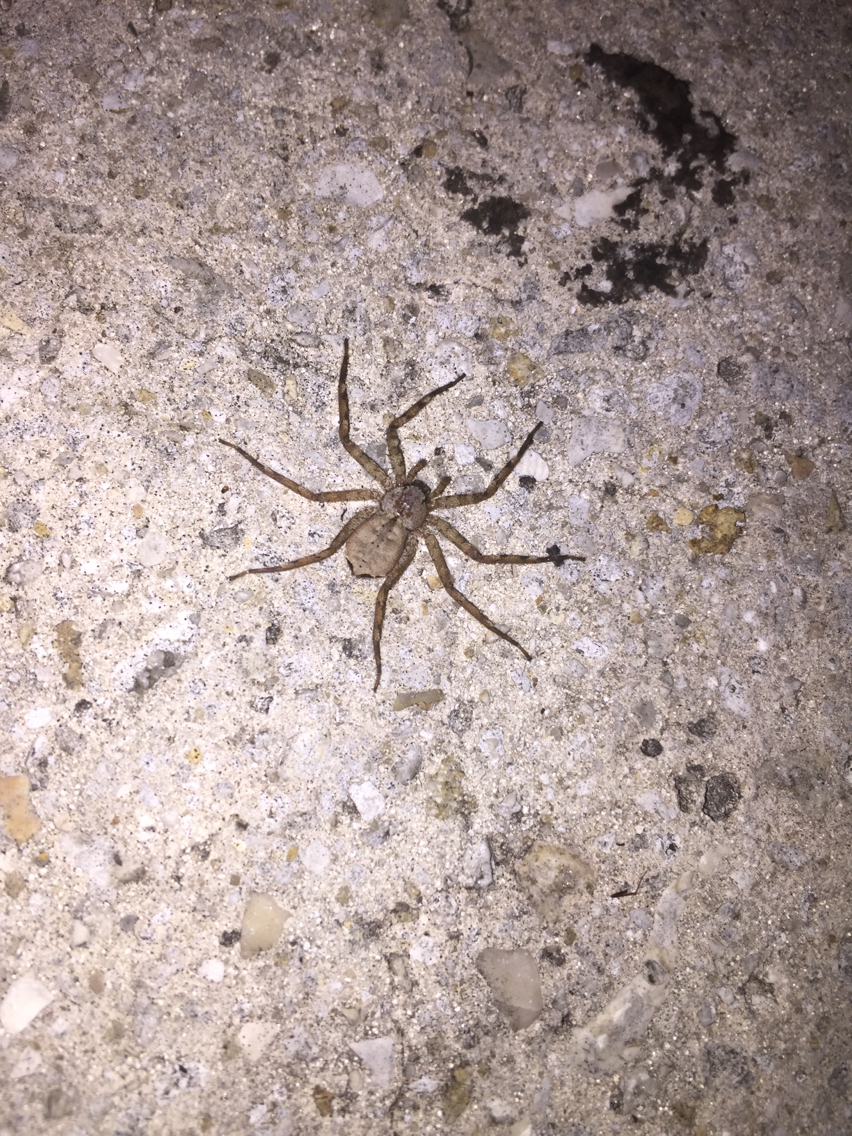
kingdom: Animalia
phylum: Arthropoda
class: Arachnida
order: Araneae
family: Selenopidae
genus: Selenops
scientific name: Selenops
